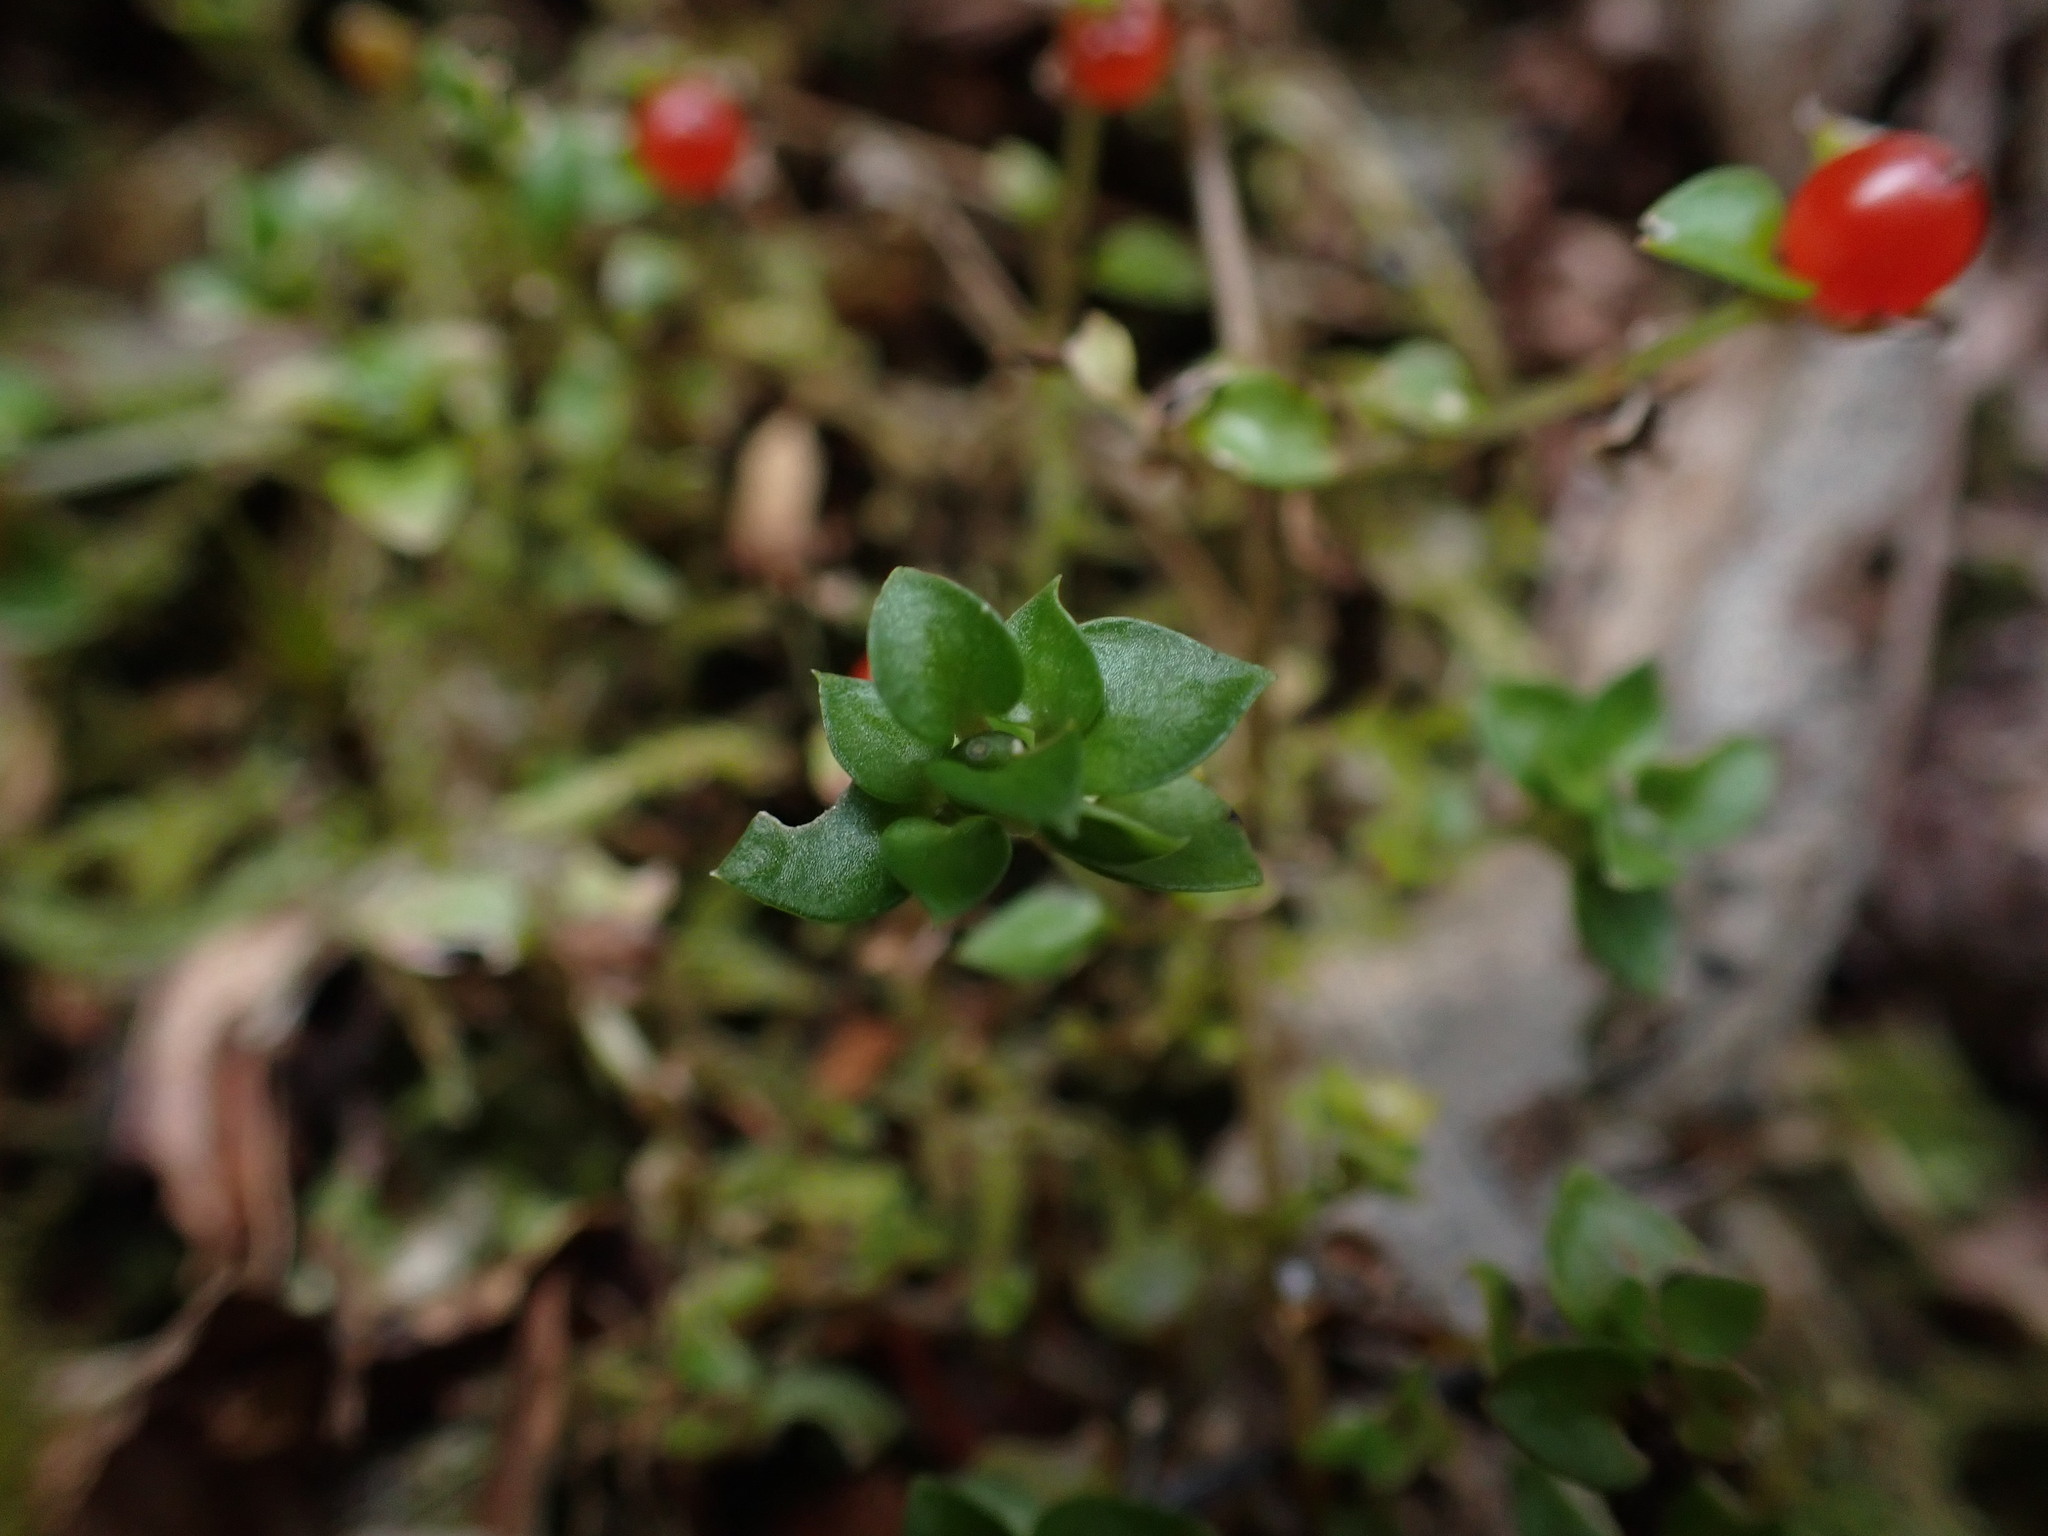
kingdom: Plantae
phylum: Tracheophyta
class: Magnoliopsida
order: Gentianales
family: Rubiaceae
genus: Nertera
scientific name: Nertera granadensis
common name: Beadplant
